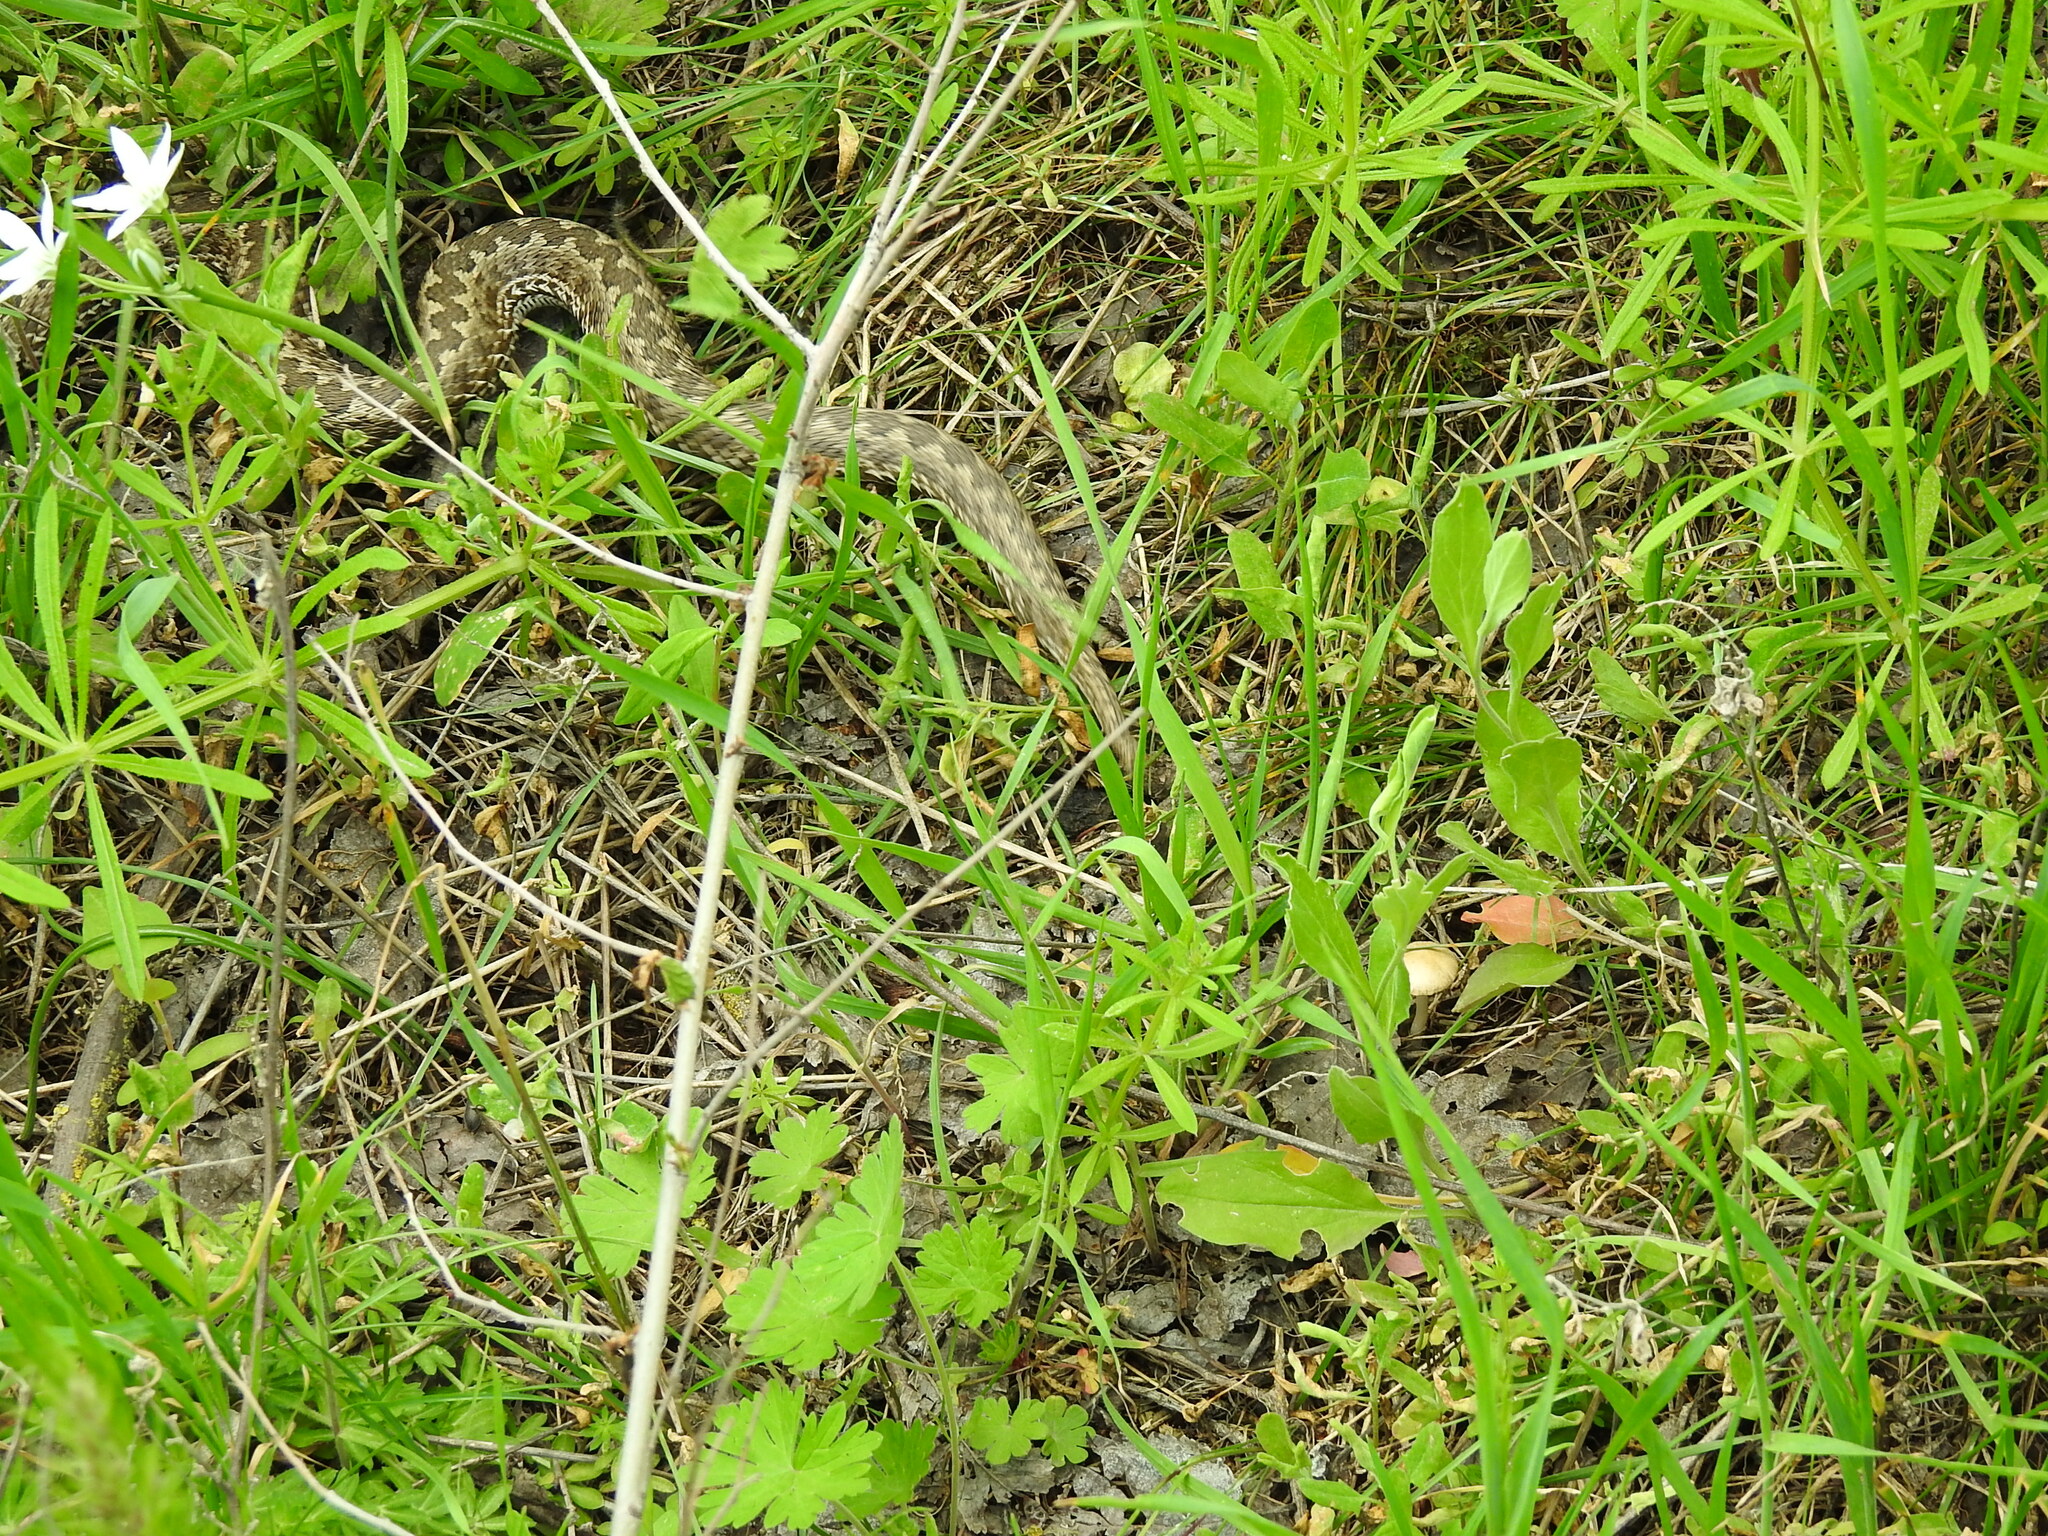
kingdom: Animalia
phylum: Chordata
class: Squamata
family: Viperidae
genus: Vipera
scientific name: Vipera renardi
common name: Eastern steppe viper
